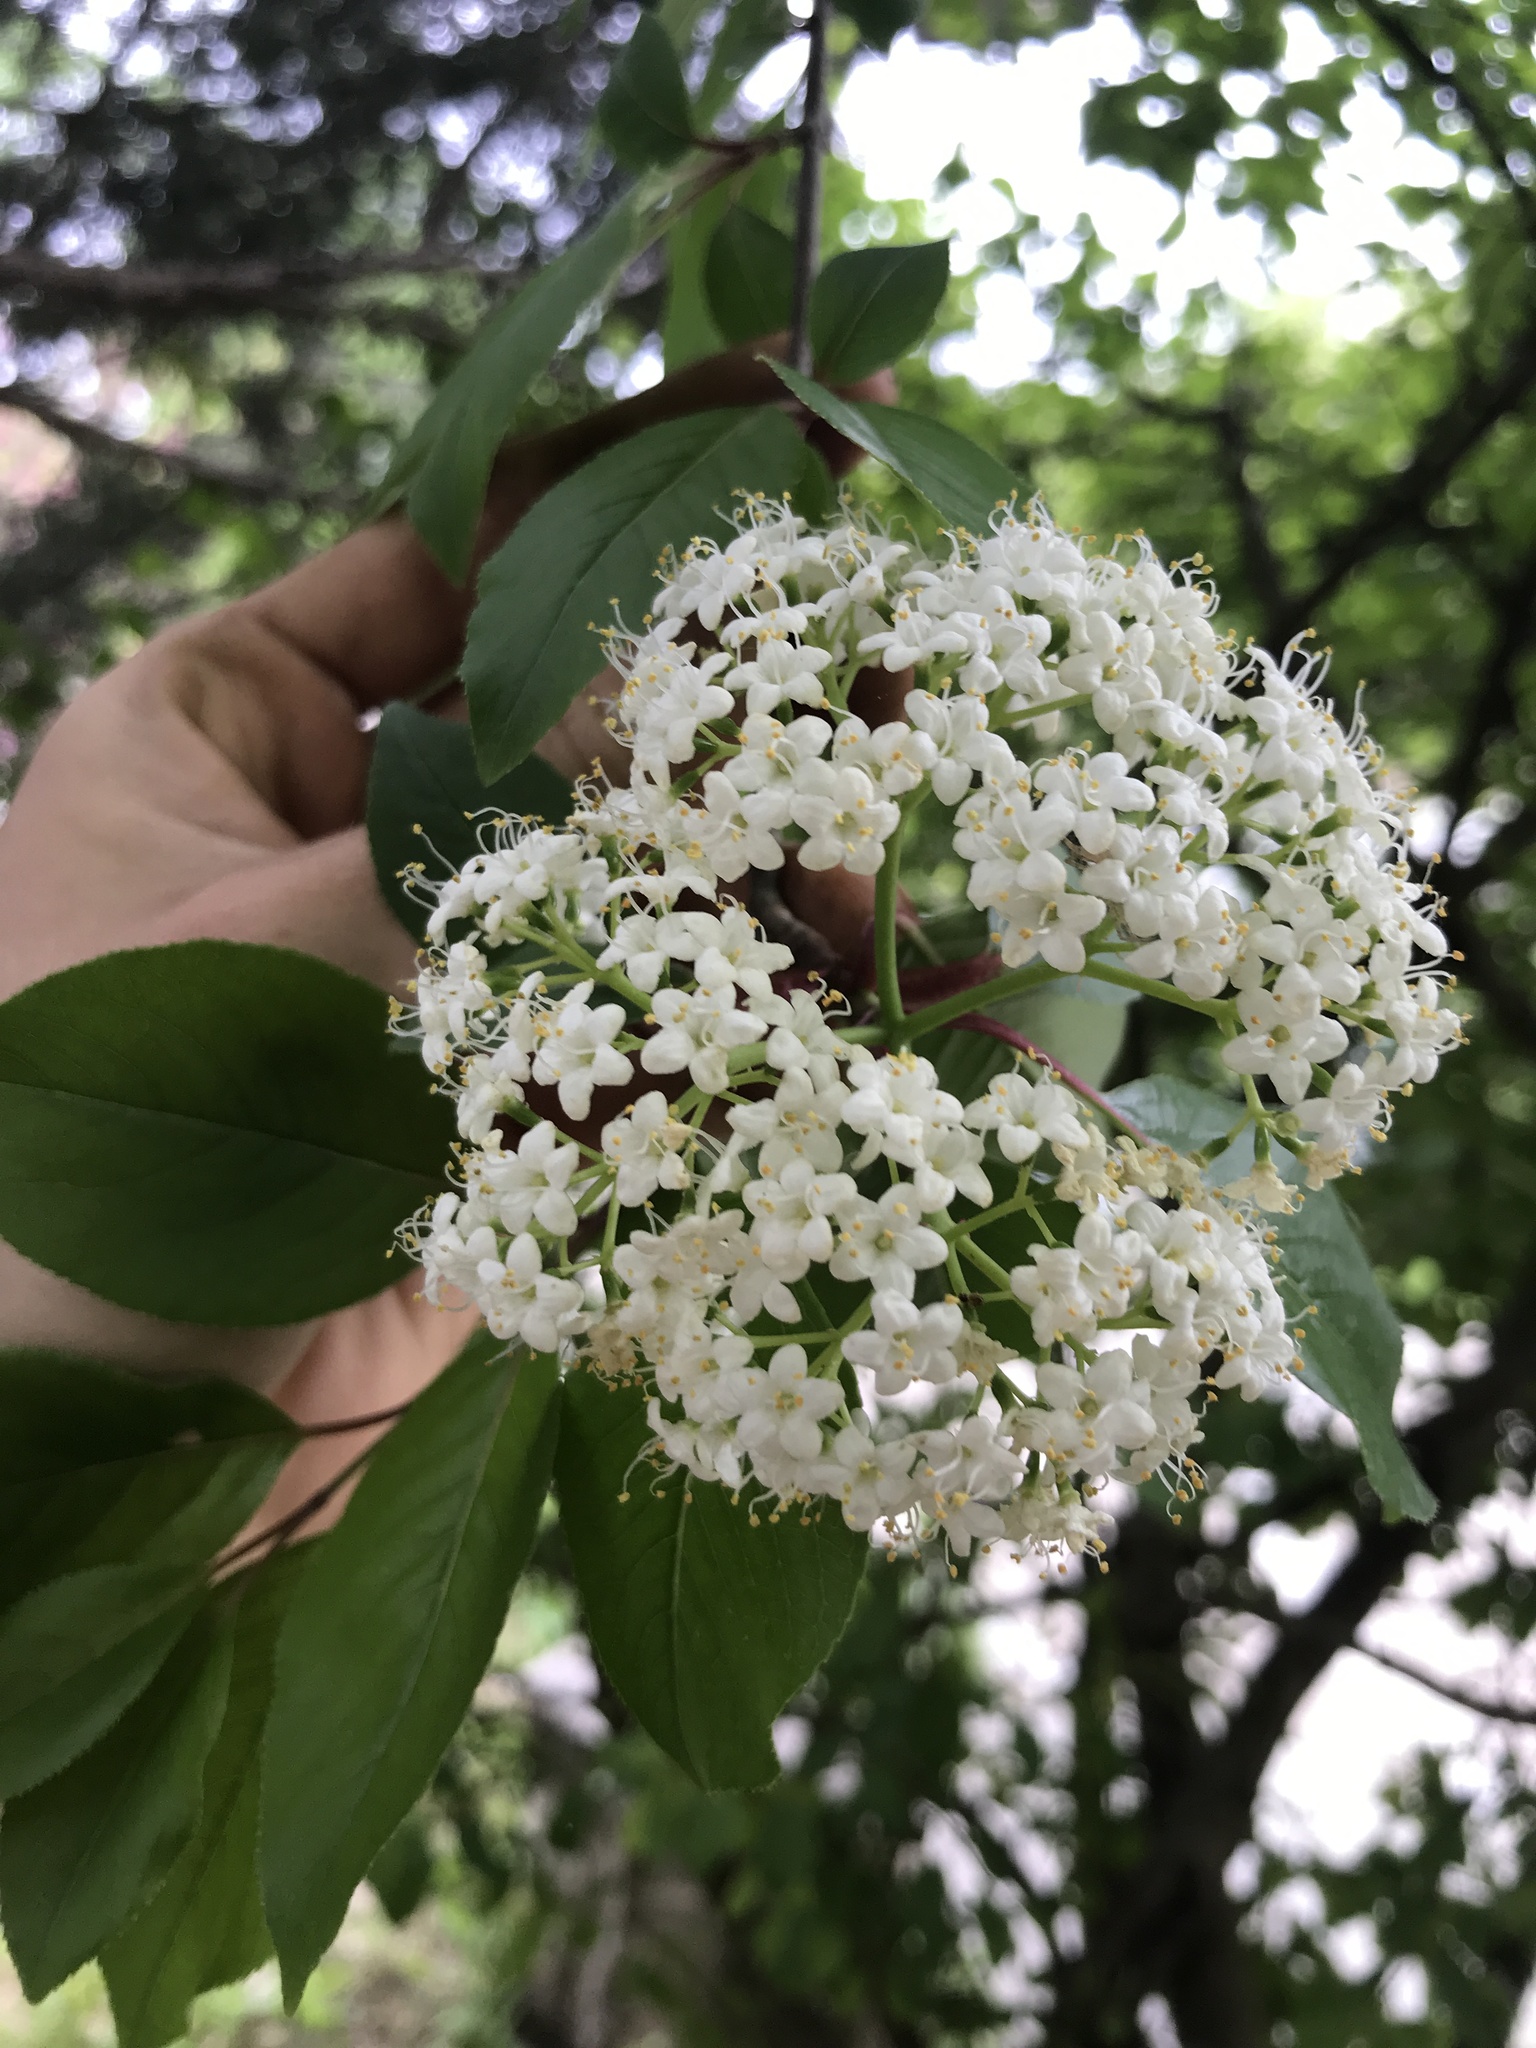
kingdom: Plantae
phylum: Tracheophyta
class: Magnoliopsida
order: Dipsacales
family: Viburnaceae
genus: Viburnum
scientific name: Viburnum prunifolium
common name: Black haw
